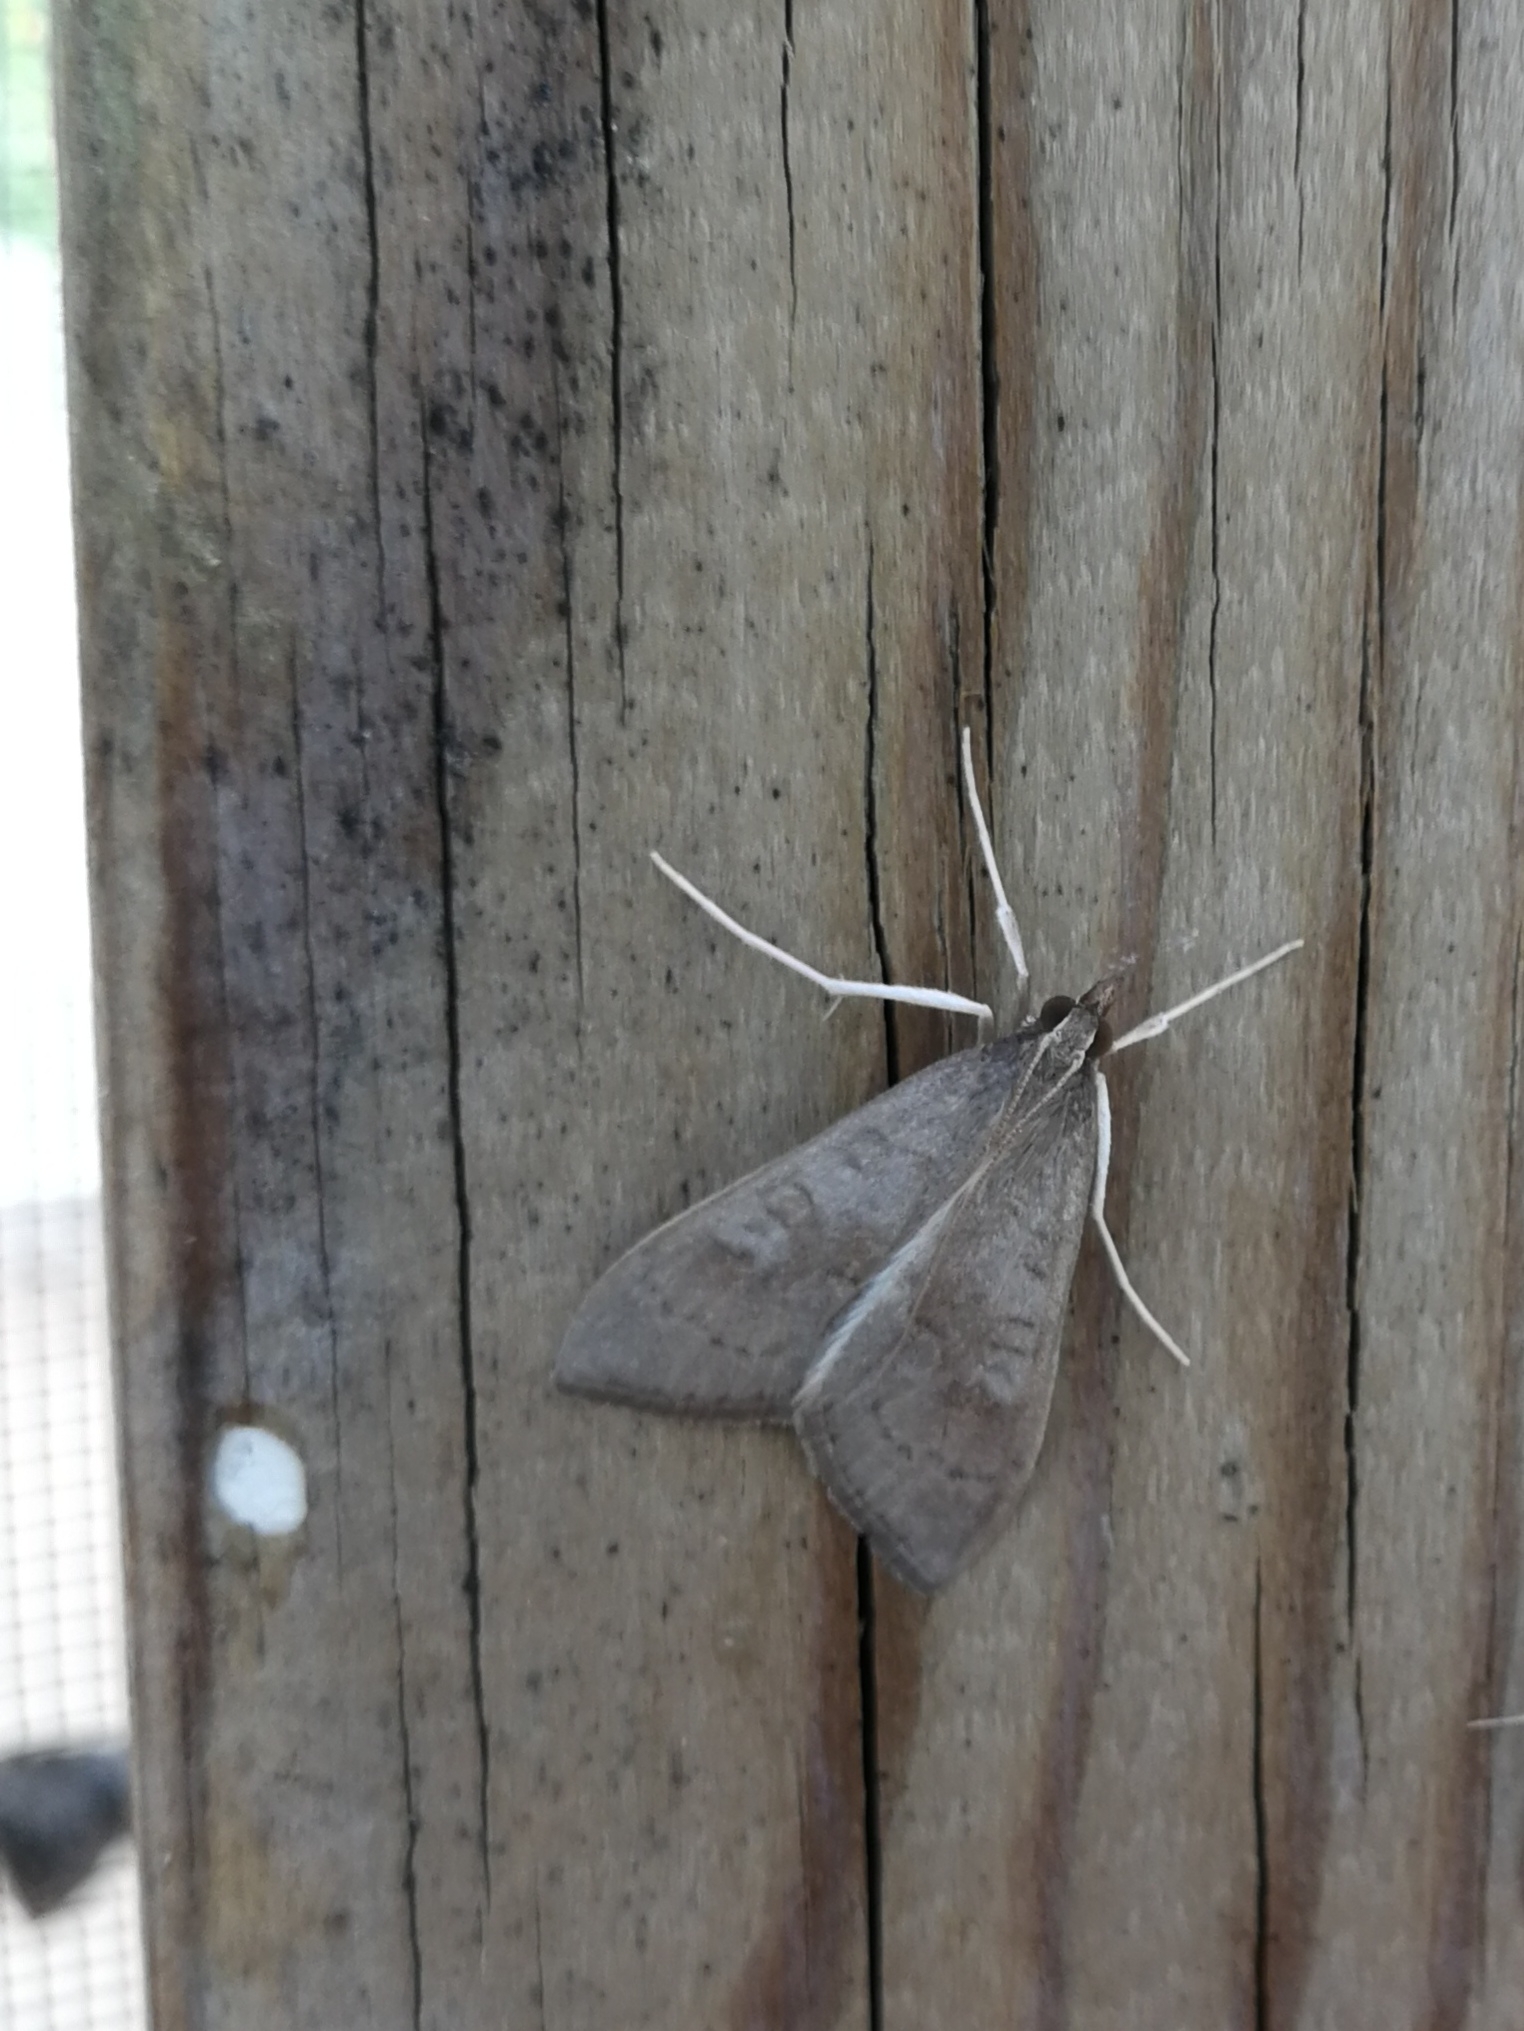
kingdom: Animalia
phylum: Arthropoda
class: Insecta
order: Lepidoptera
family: Crambidae
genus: Mecyna
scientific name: Mecyna asinalis
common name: Coastal pearl
